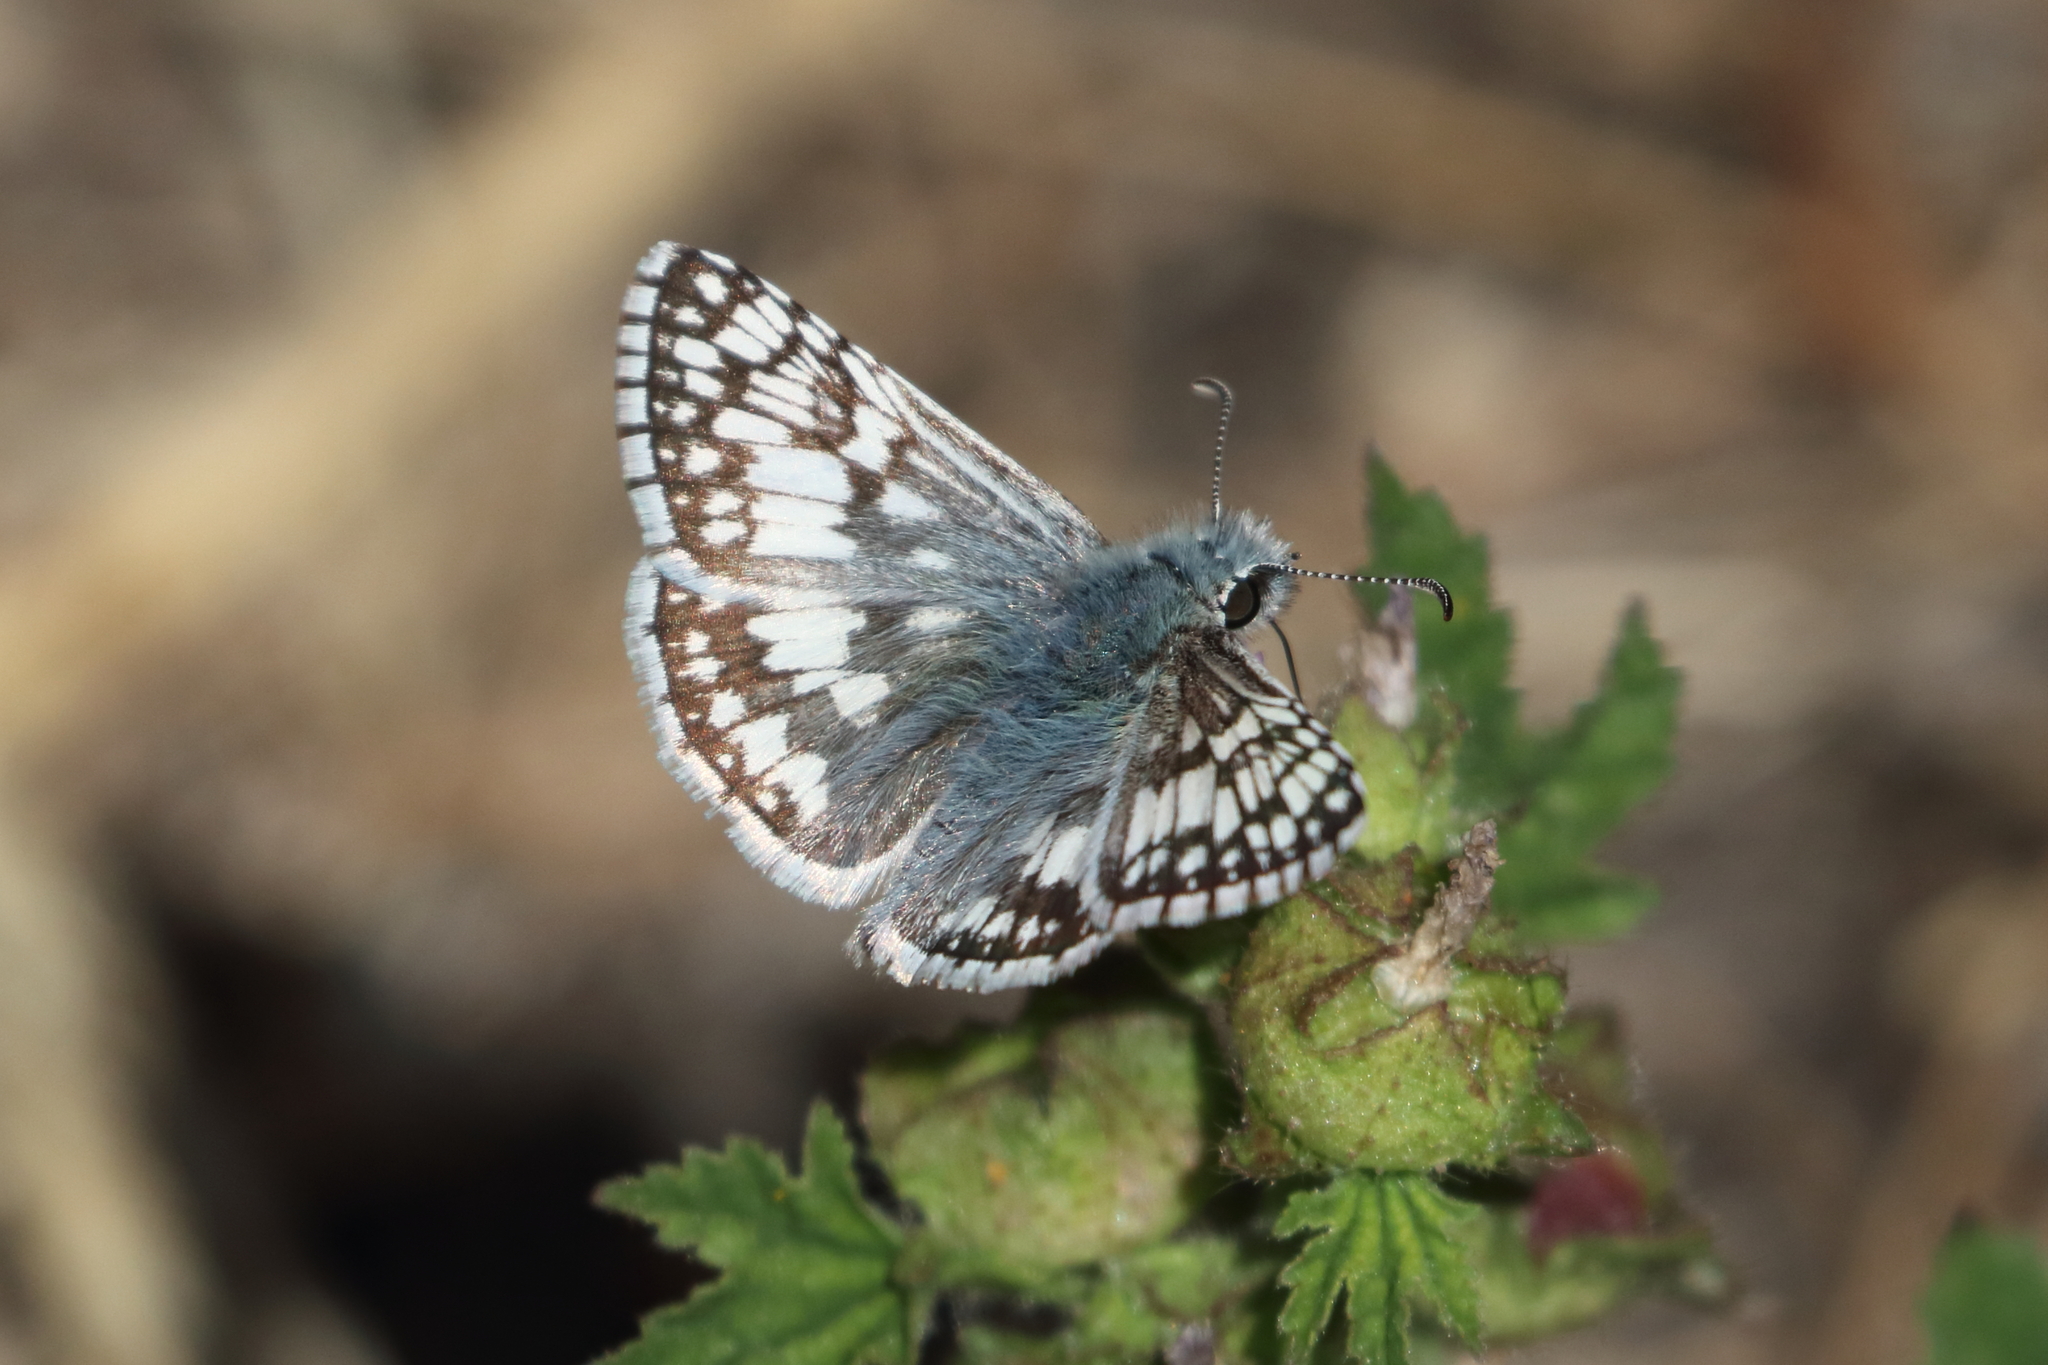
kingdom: Animalia
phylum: Arthropoda
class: Insecta
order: Lepidoptera
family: Hesperiidae
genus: Burnsius
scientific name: Burnsius communis
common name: Common checkered-skipper
